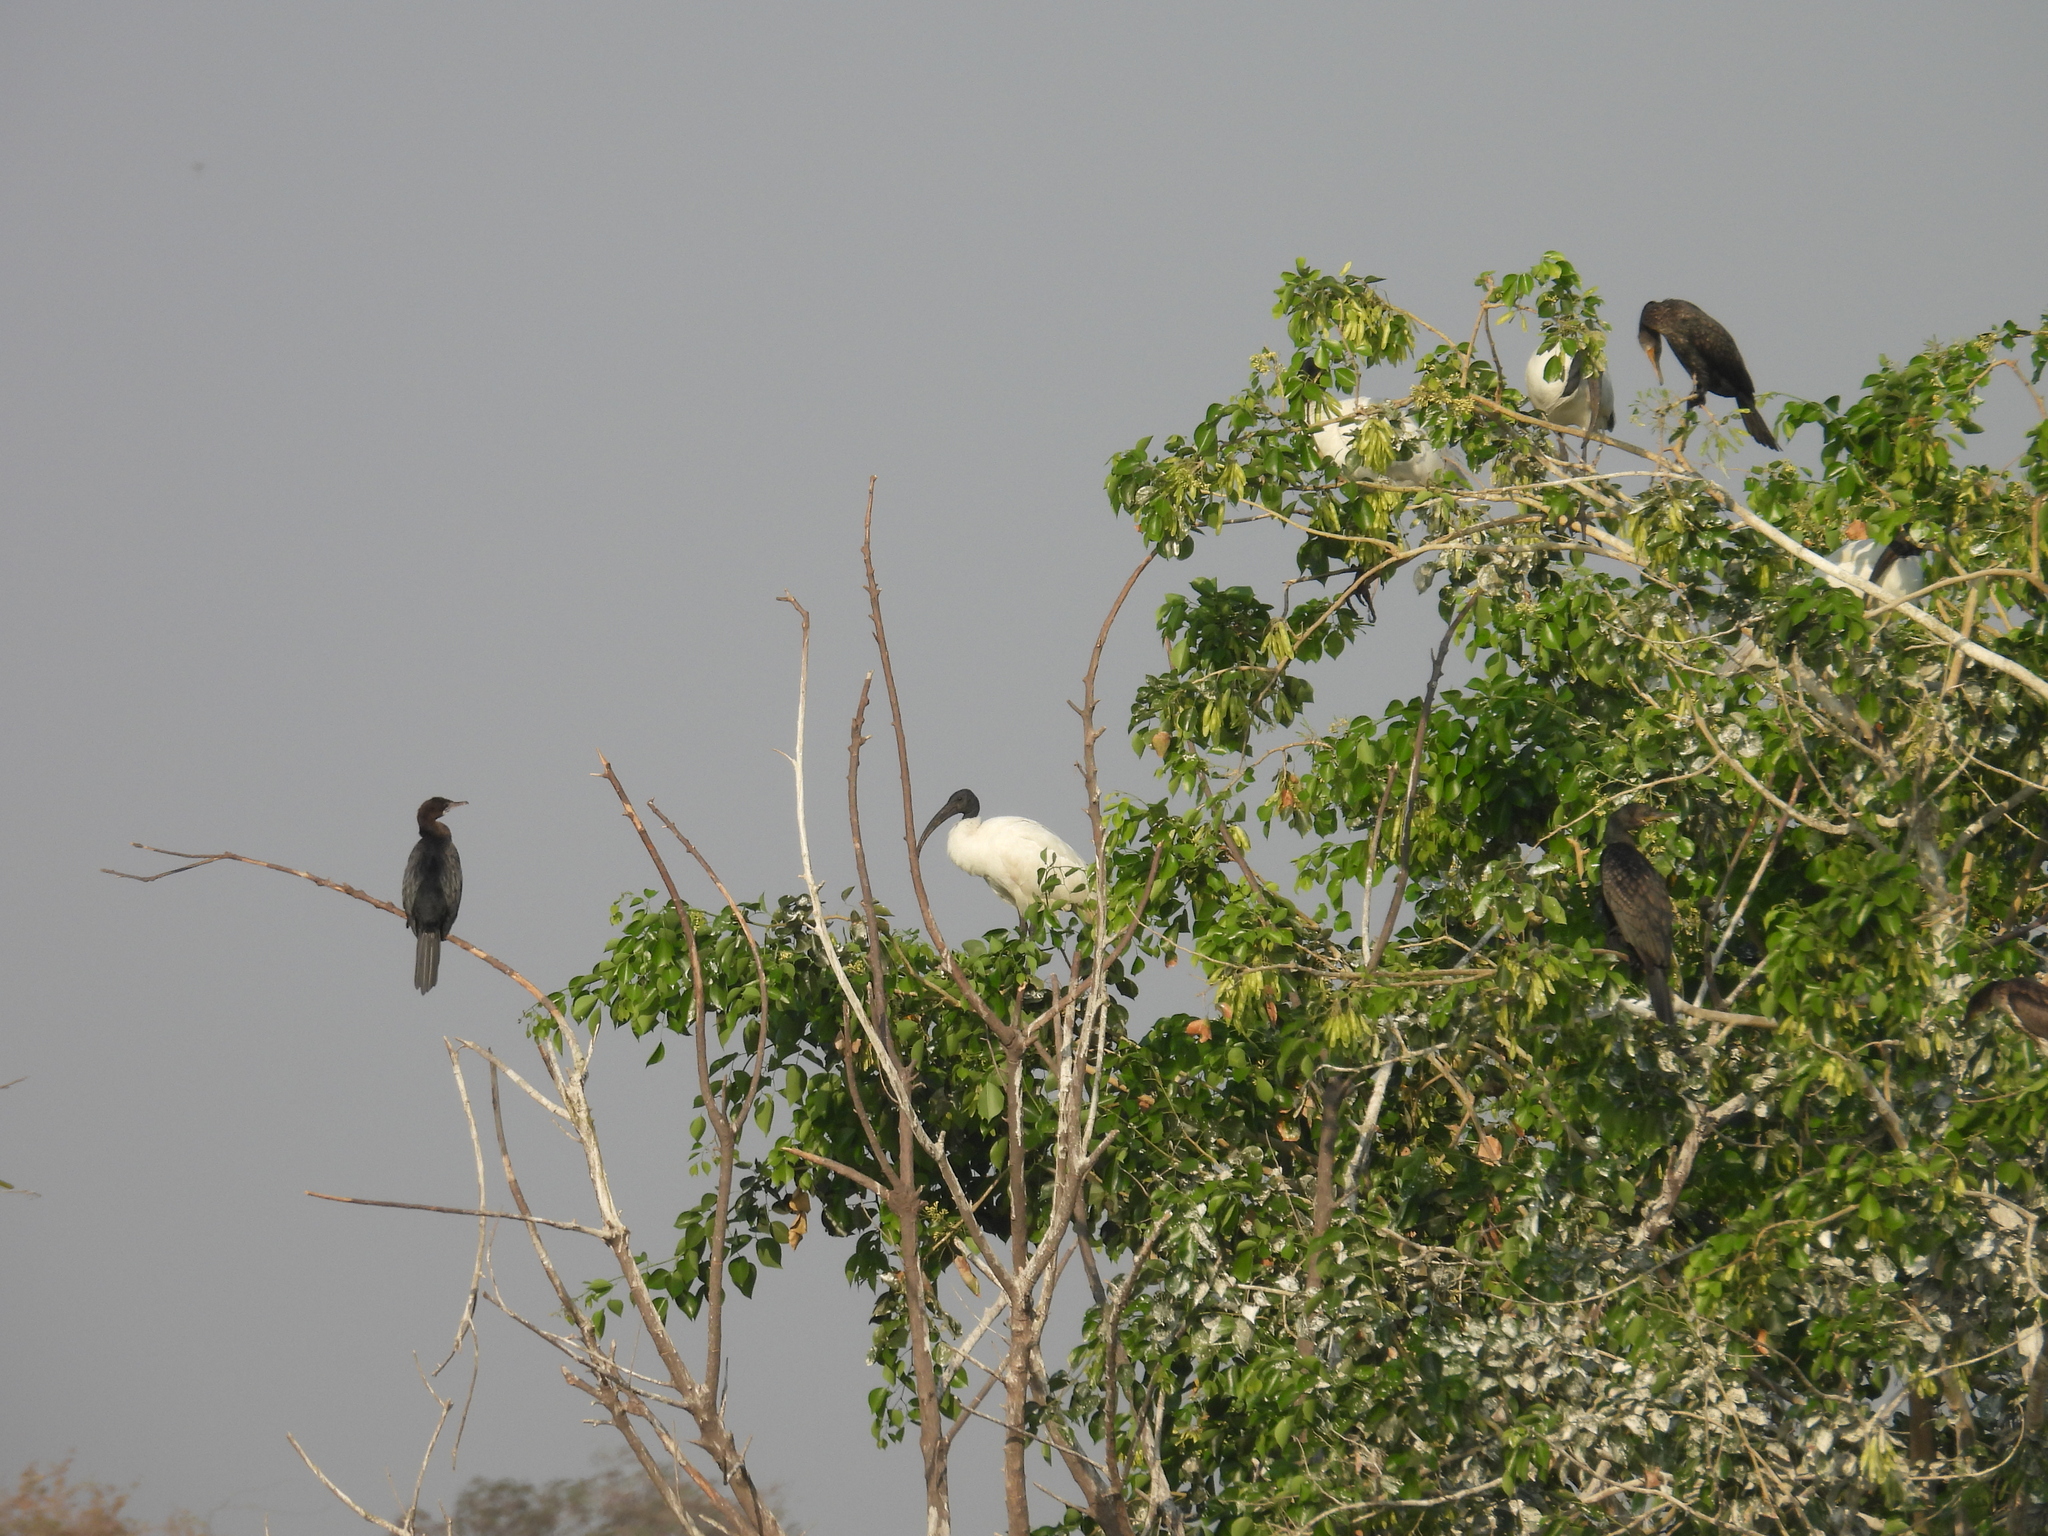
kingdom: Animalia
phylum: Chordata
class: Aves
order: Pelecaniformes
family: Threskiornithidae
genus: Threskiornis
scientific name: Threskiornis melanocephalus
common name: Black-headed ibis
